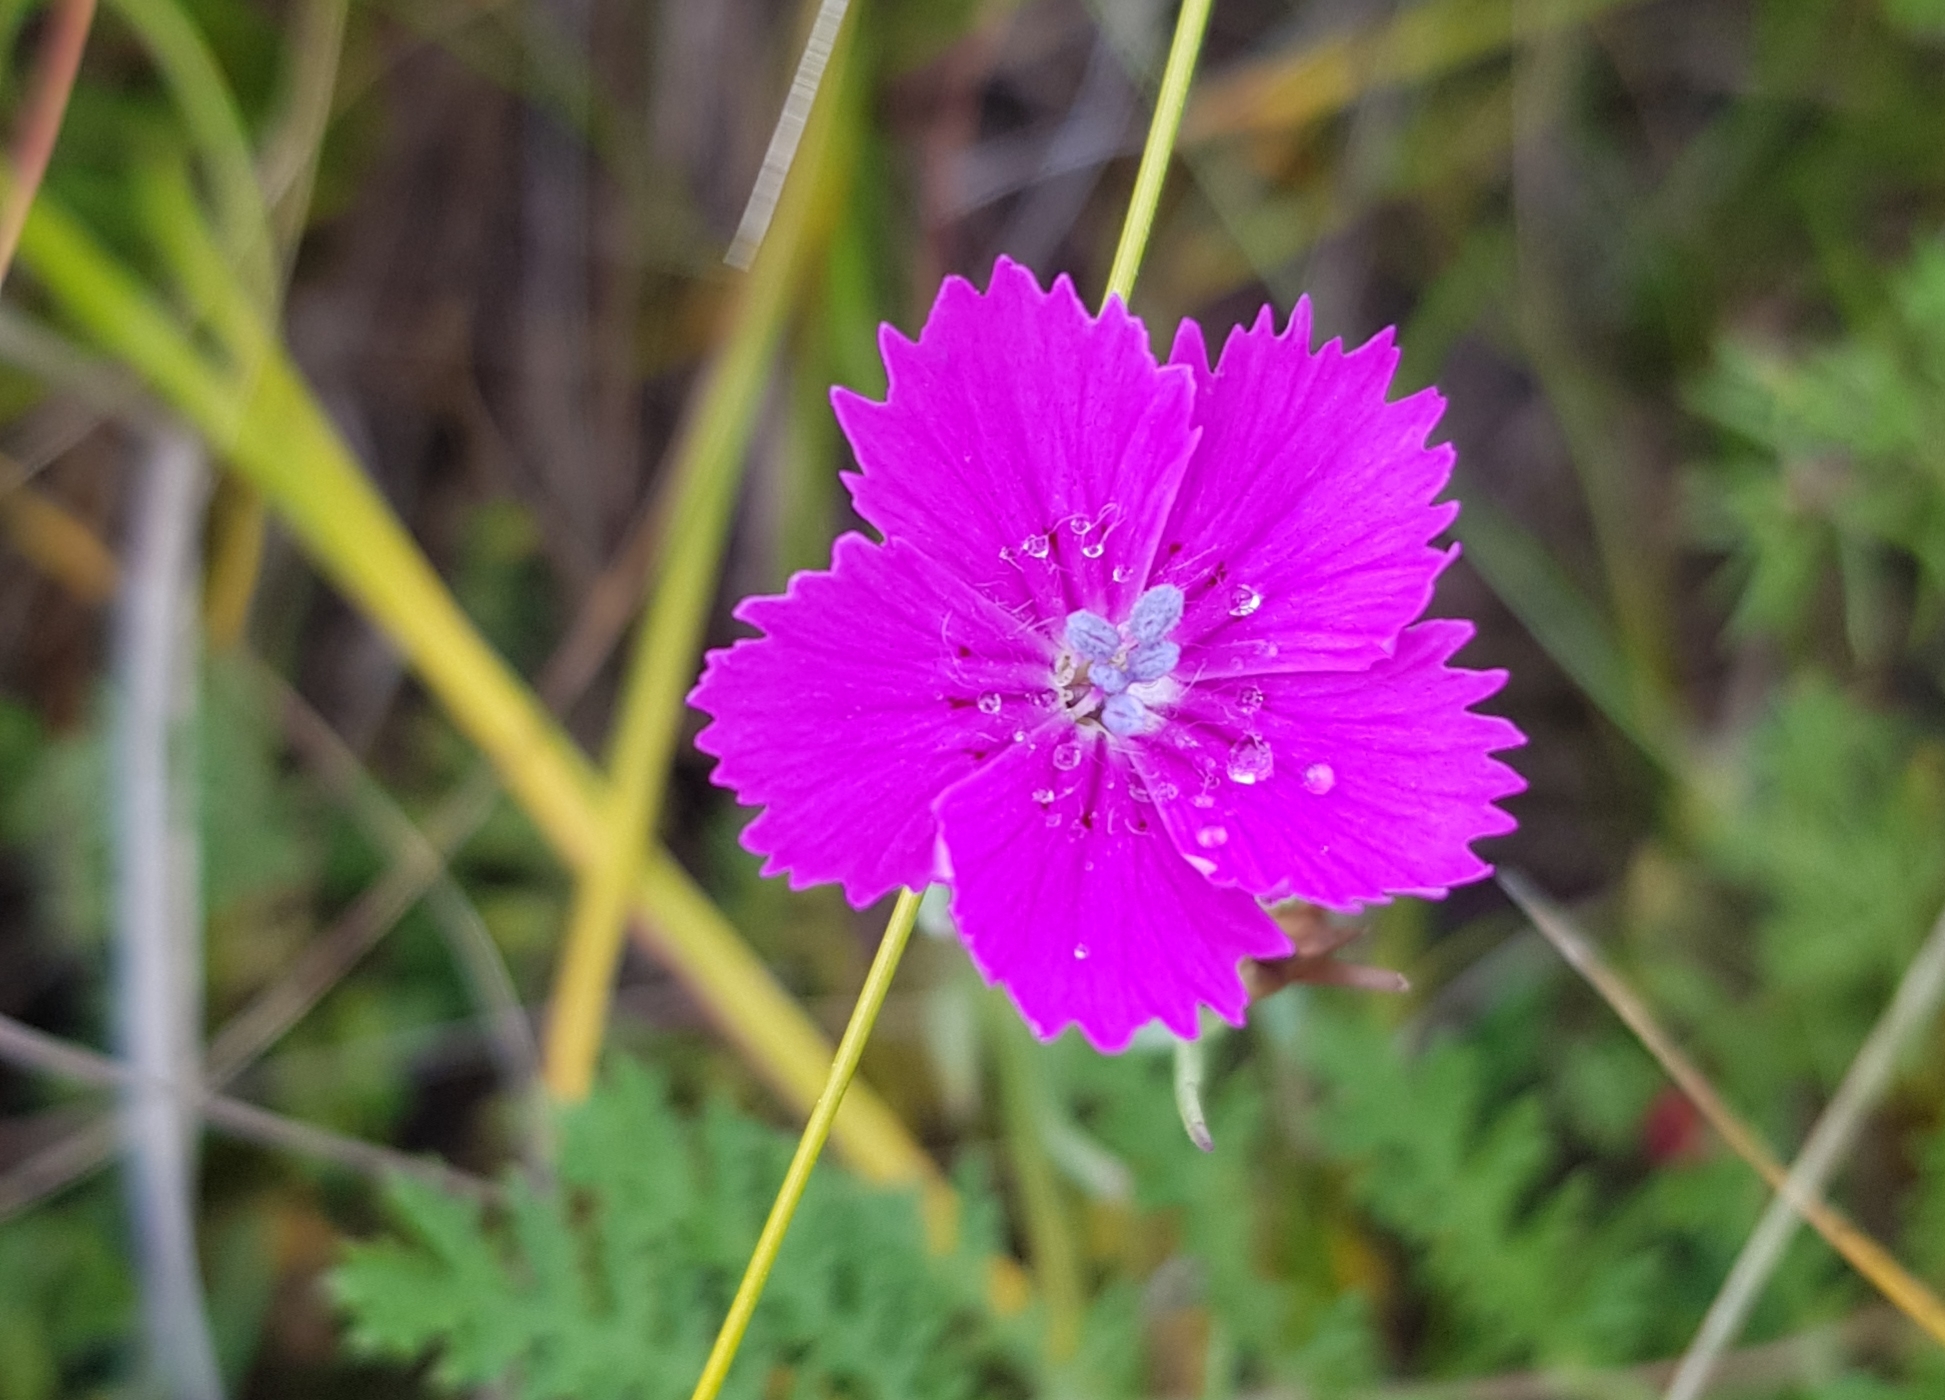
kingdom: Plantae
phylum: Tracheophyta
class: Magnoliopsida
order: Caryophyllales
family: Caryophyllaceae
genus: Dianthus
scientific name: Dianthus chinensis
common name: Rainbow pink
